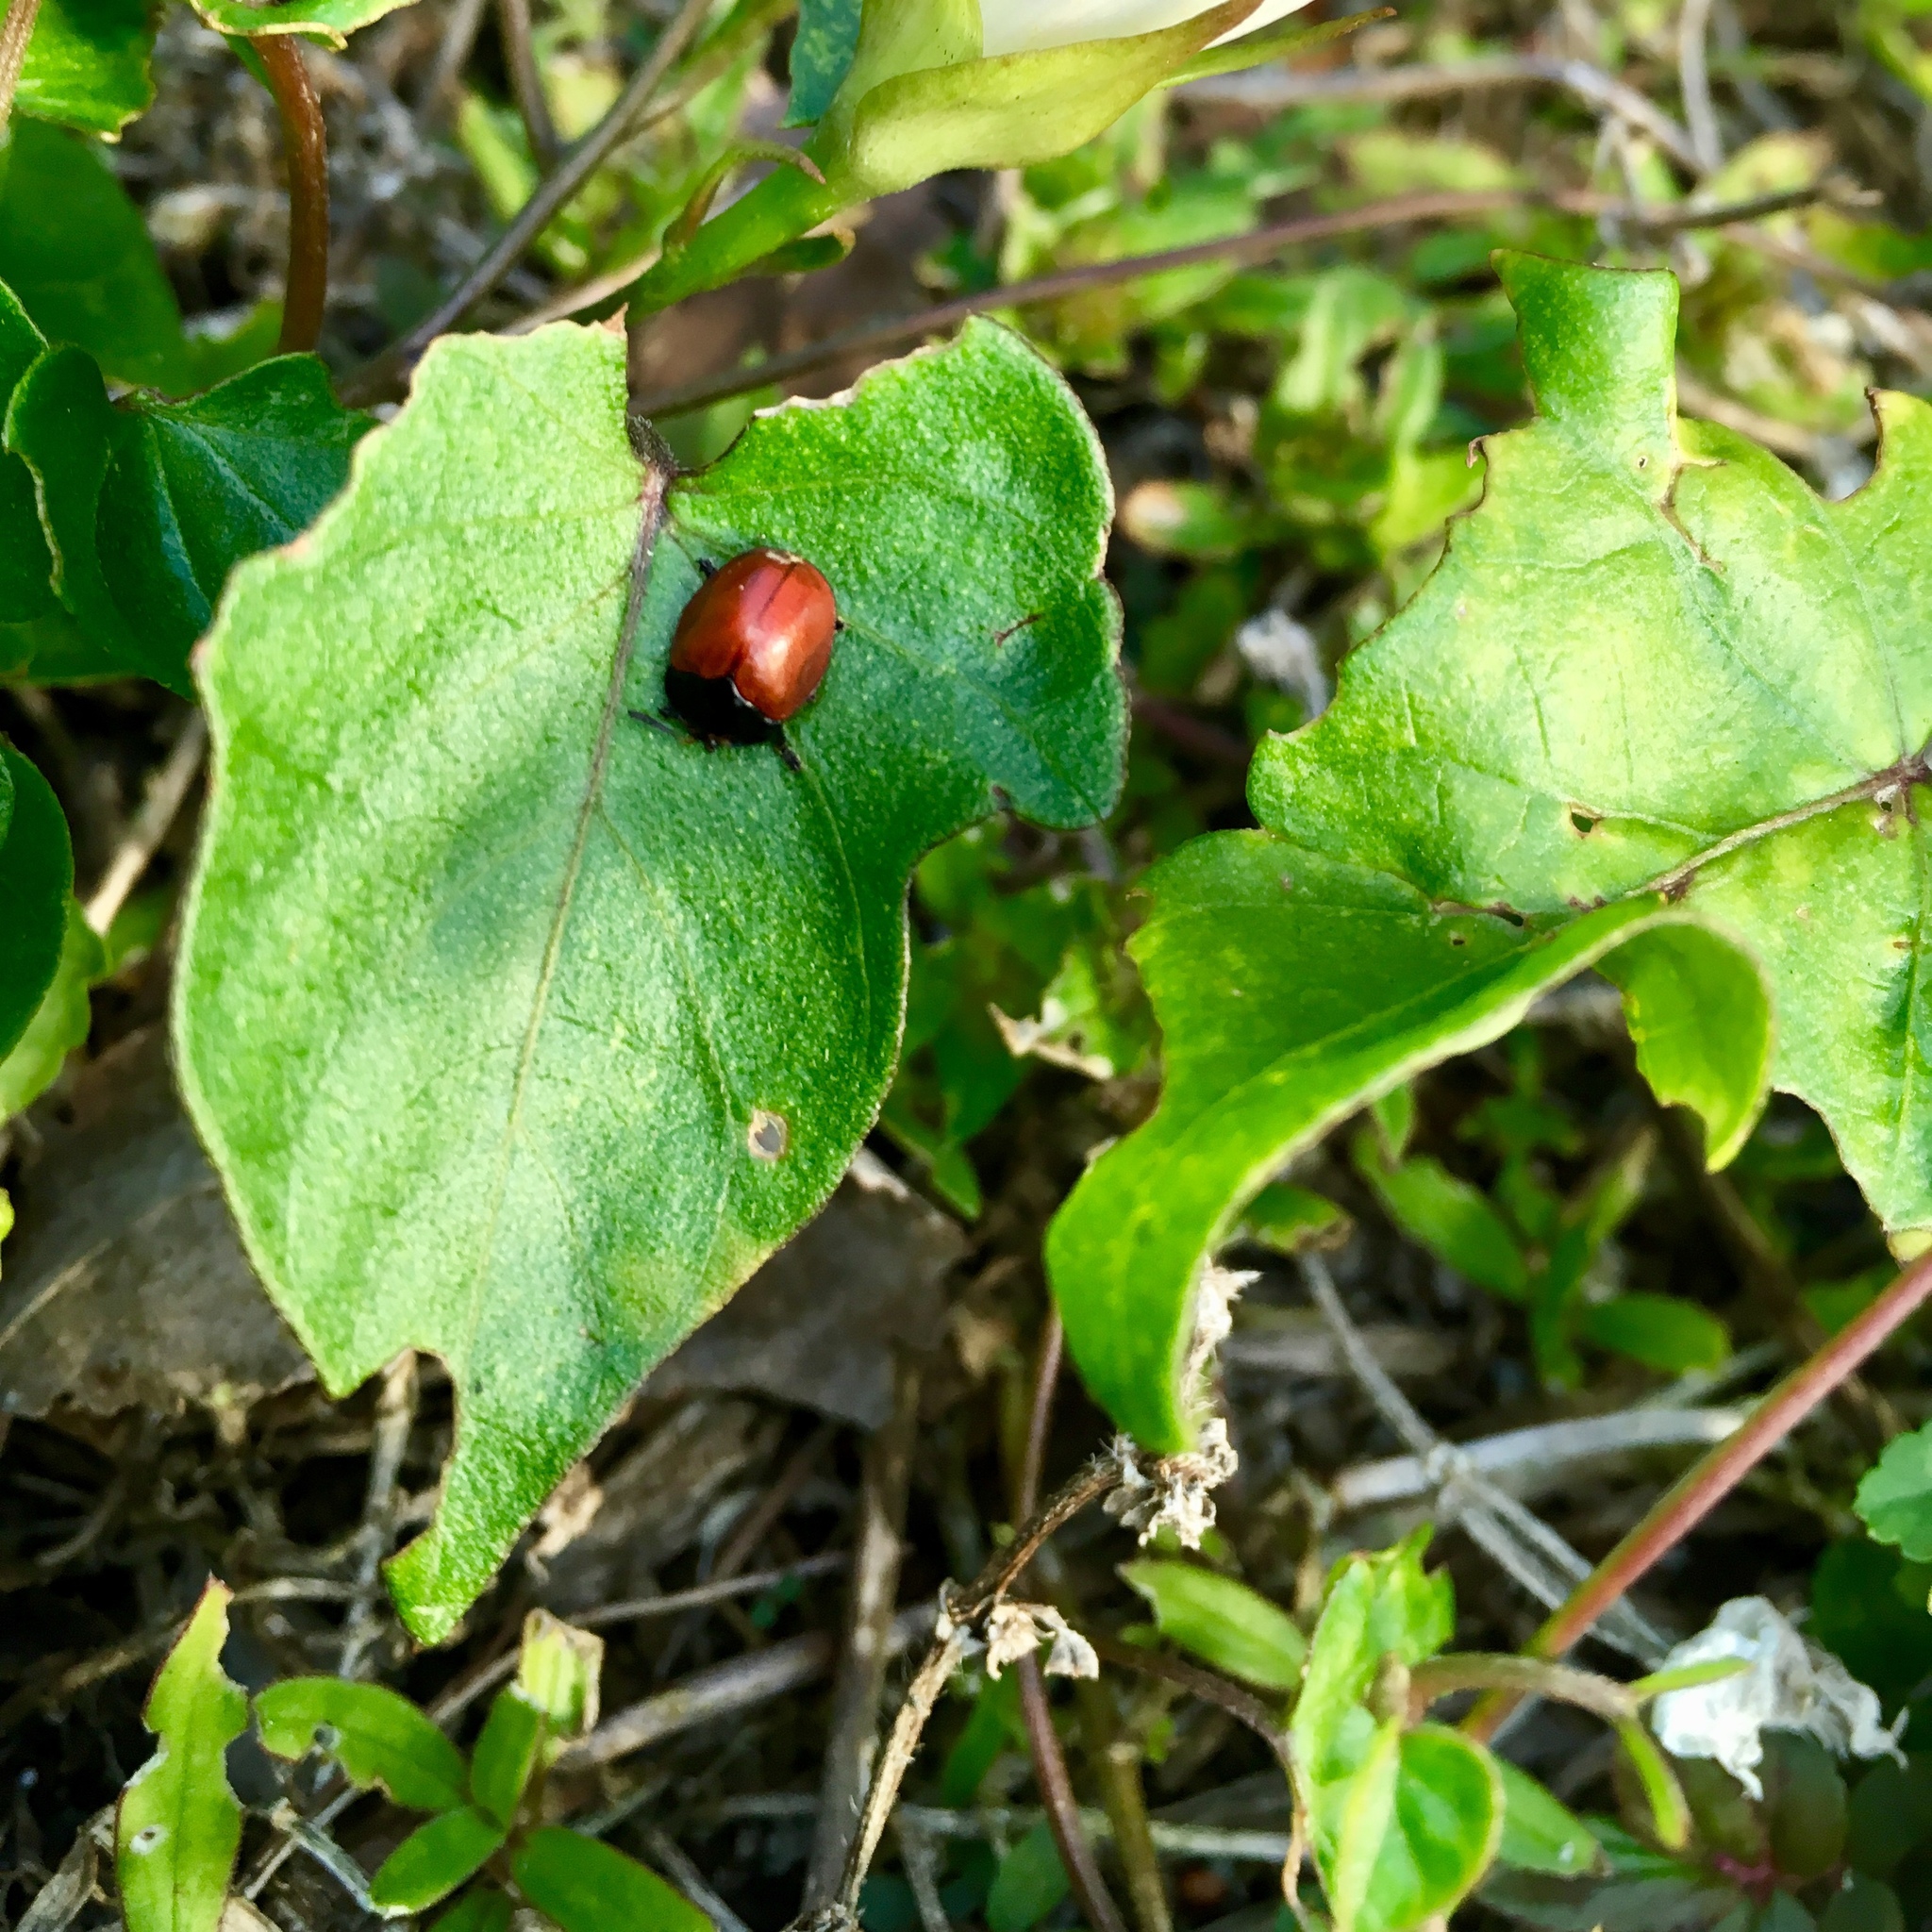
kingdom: Animalia
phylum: Arthropoda
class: Insecta
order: Coleoptera
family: Chrysomelidae
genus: Chelymorpha
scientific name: Chelymorpha cribraria
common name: Tortoise beetle
